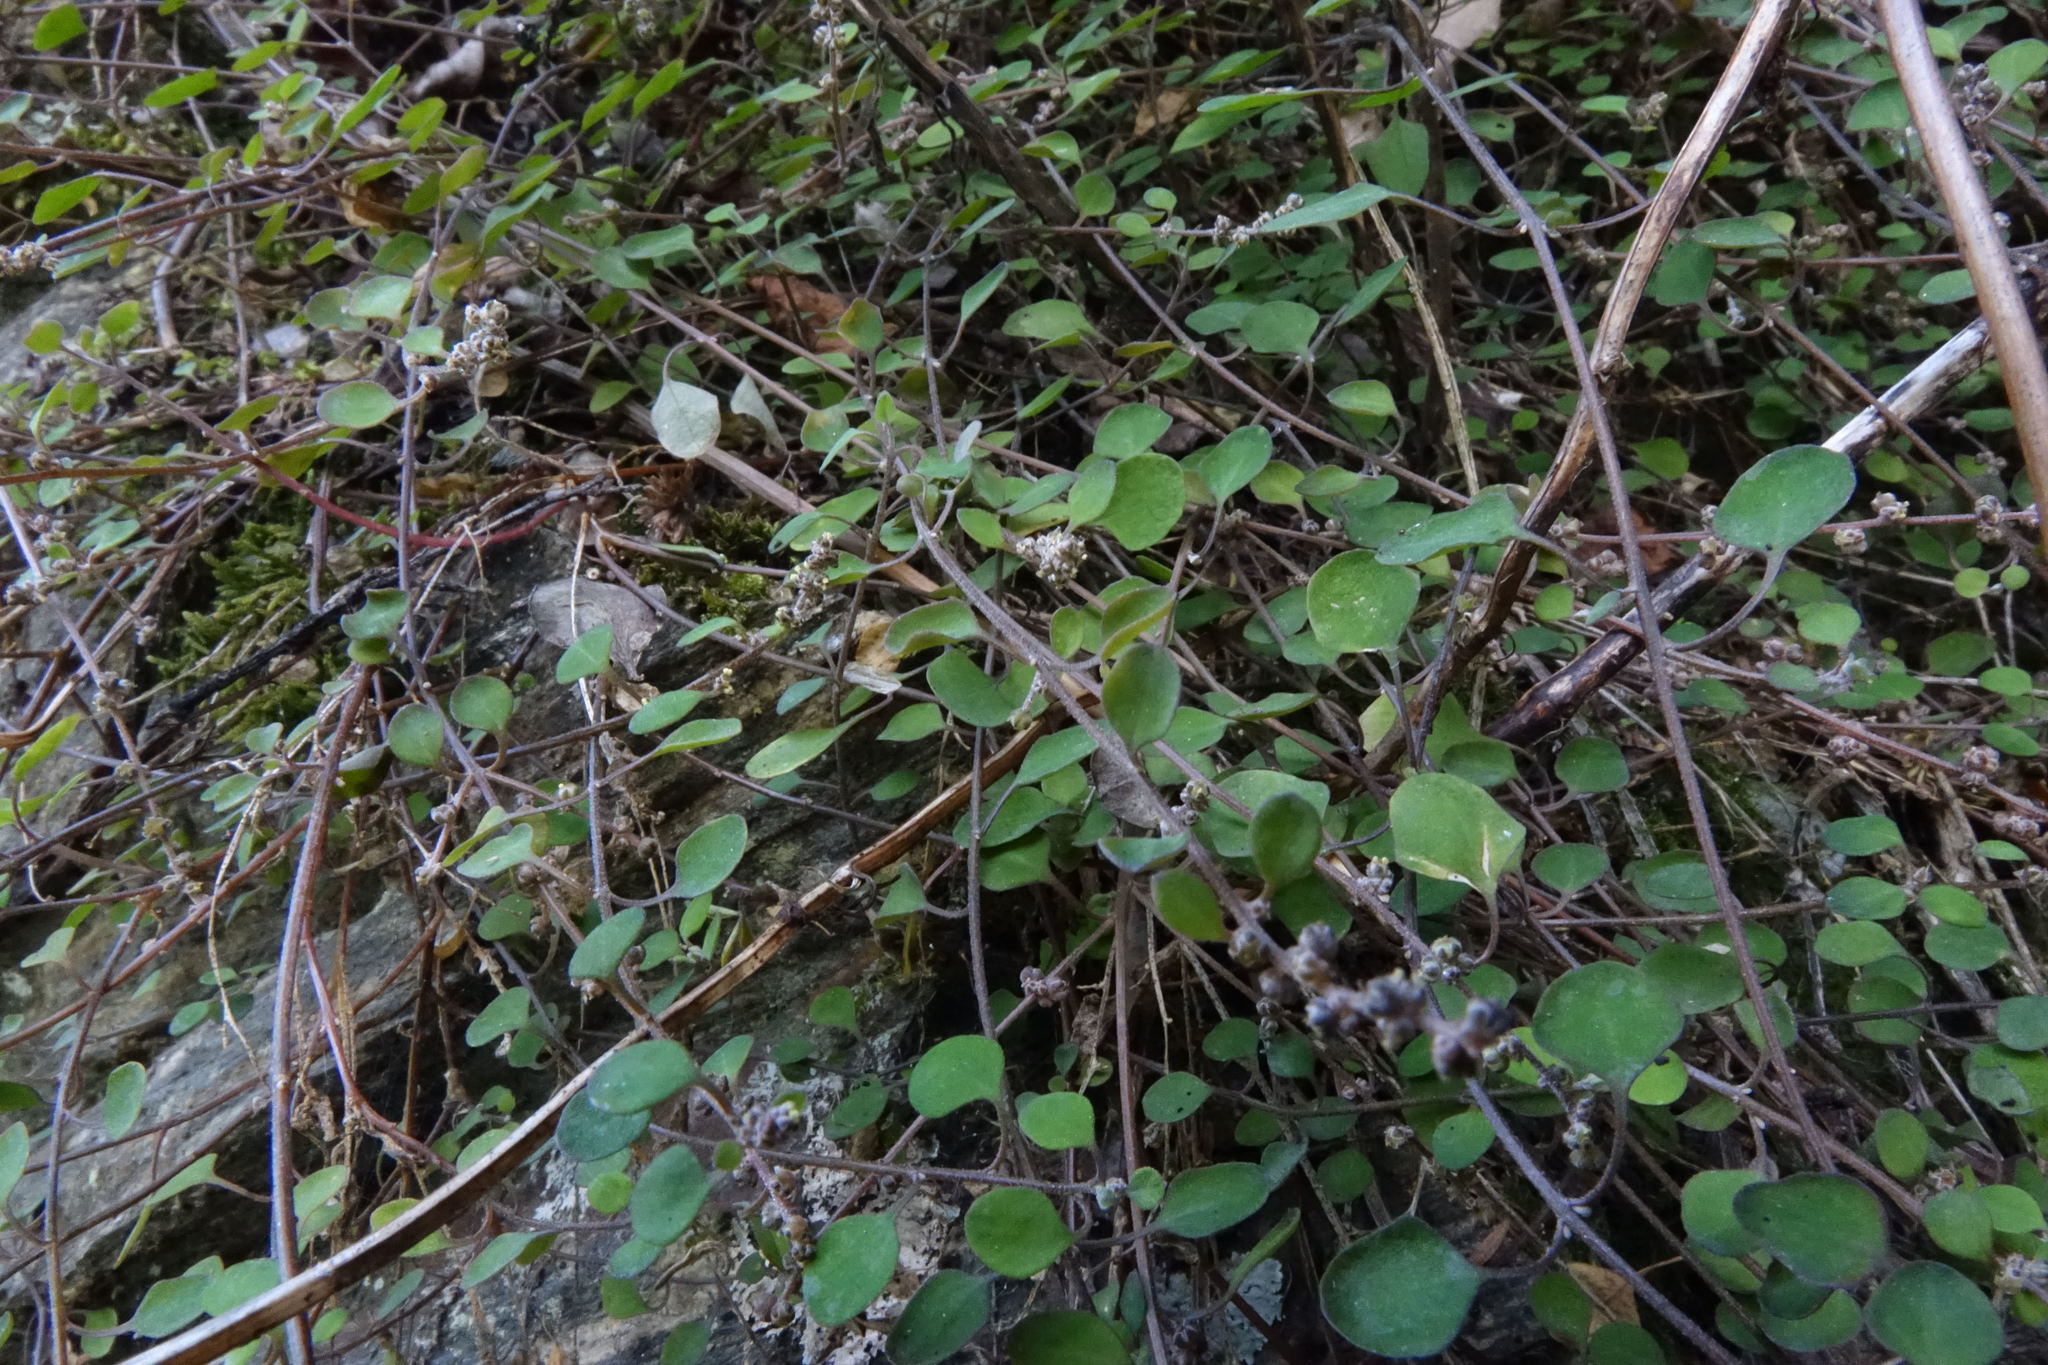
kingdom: Plantae
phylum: Tracheophyta
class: Magnoliopsida
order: Caryophyllales
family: Amaranthaceae
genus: Chenopodium
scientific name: Chenopodium allanii
